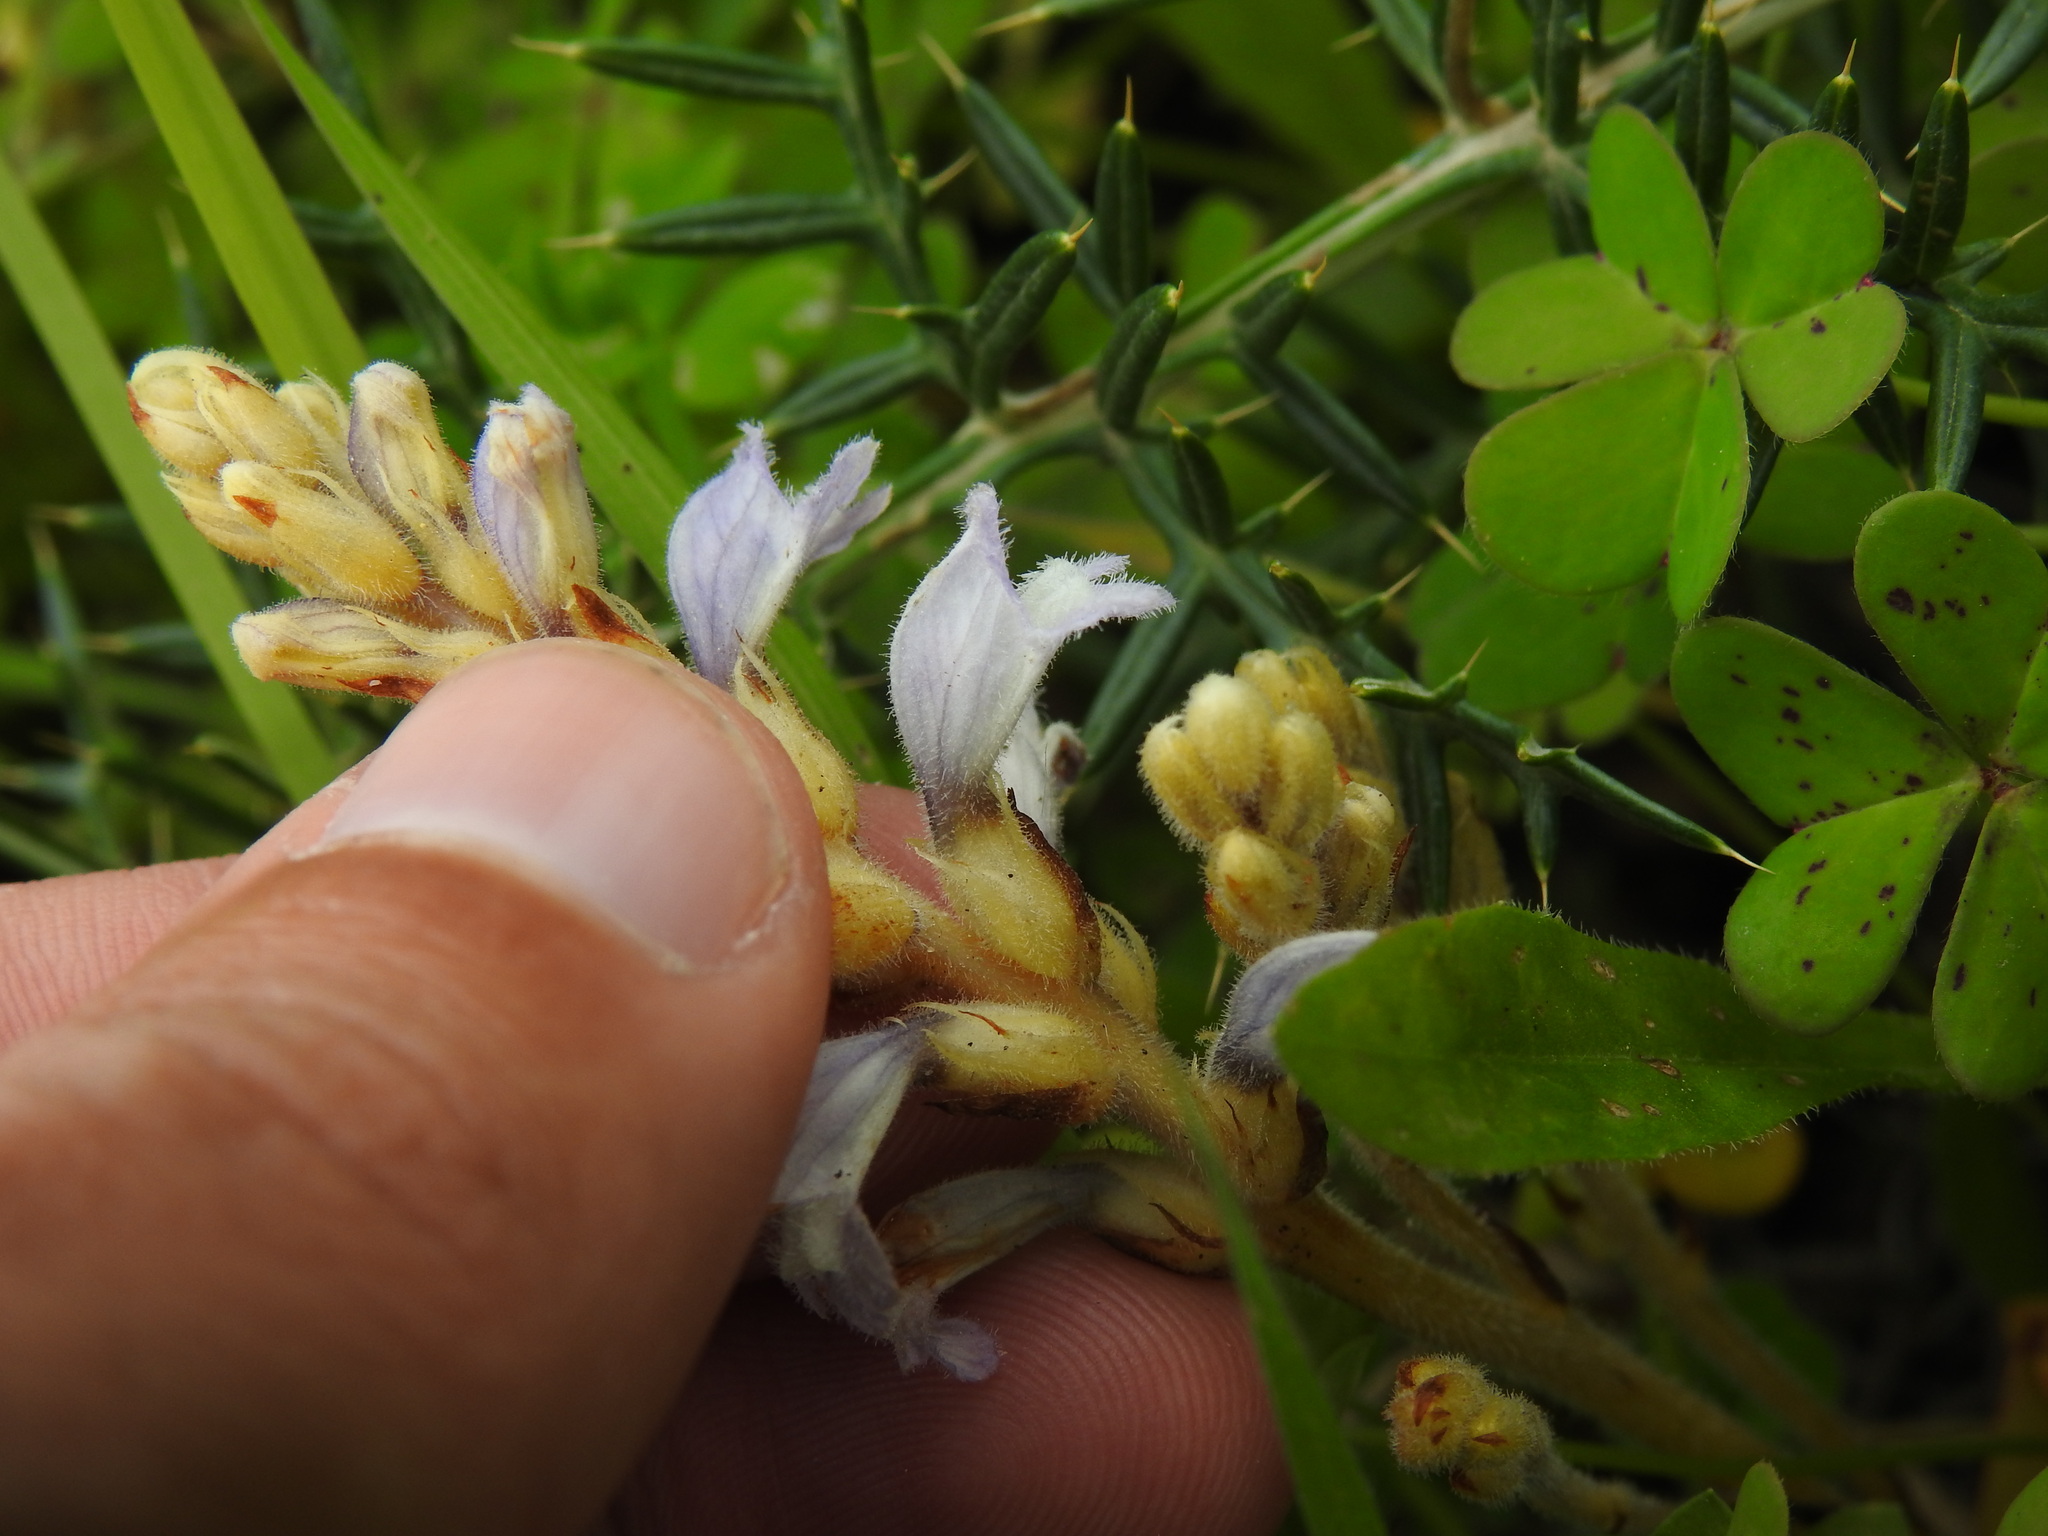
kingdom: Plantae
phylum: Tracheophyta
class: Magnoliopsida
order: Lamiales
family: Orobanchaceae
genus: Phelipanche
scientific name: Phelipanche mutelii
